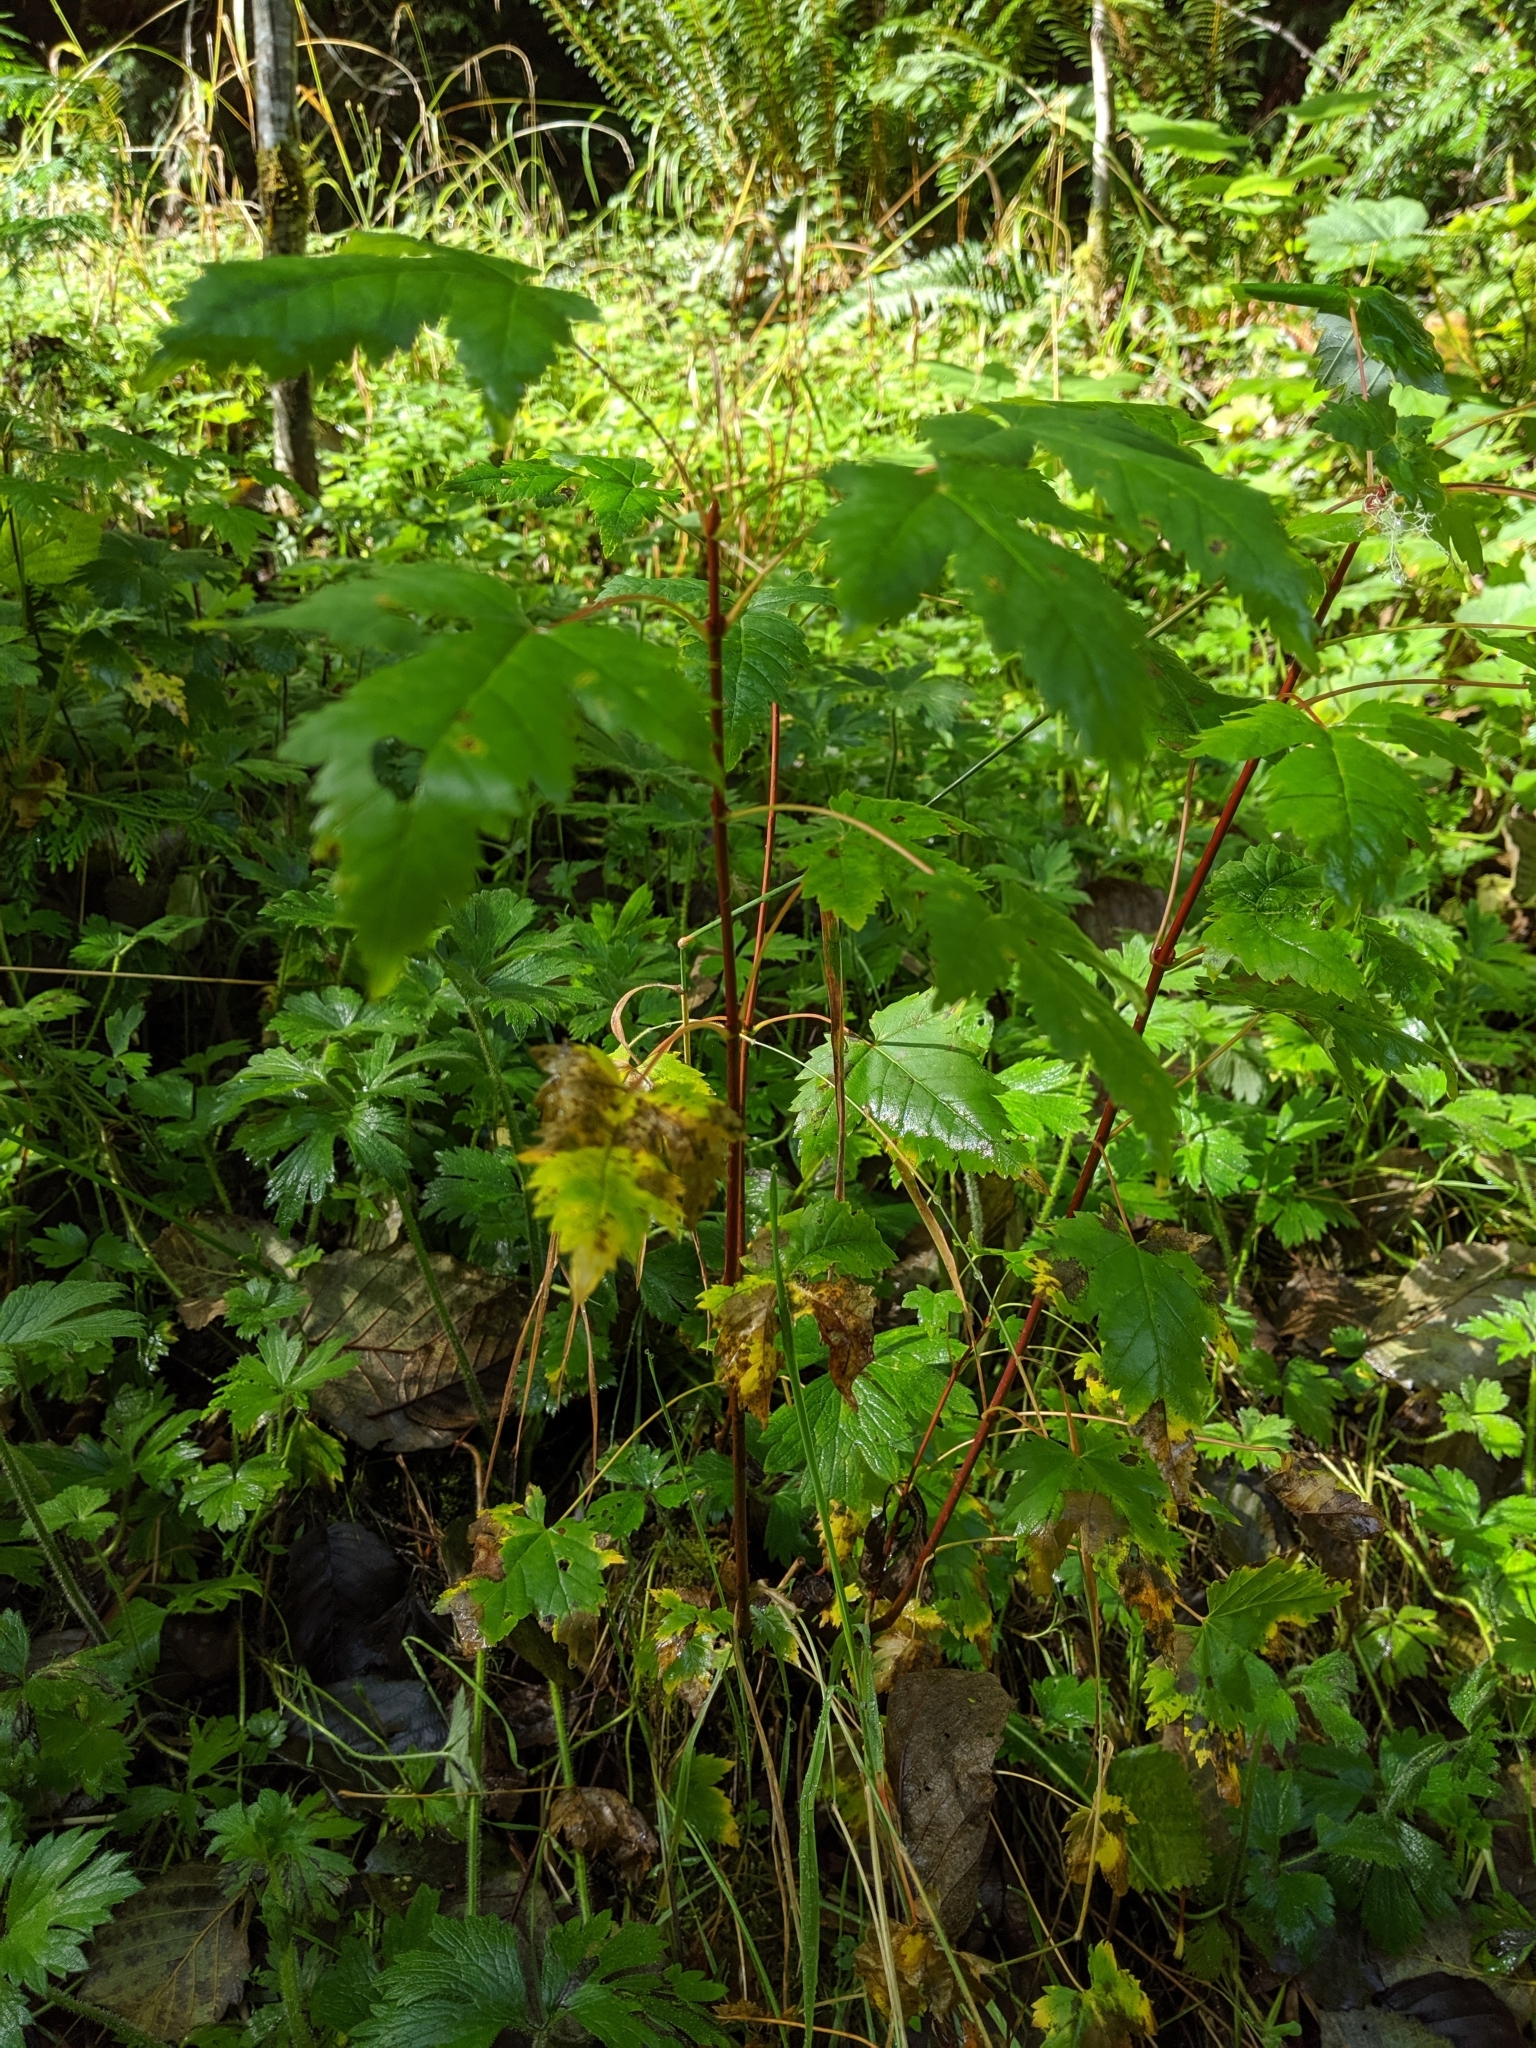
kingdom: Plantae
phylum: Tracheophyta
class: Magnoliopsida
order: Sapindales
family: Sapindaceae
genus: Acer
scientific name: Acer glabrum
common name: Rocky mountain maple
